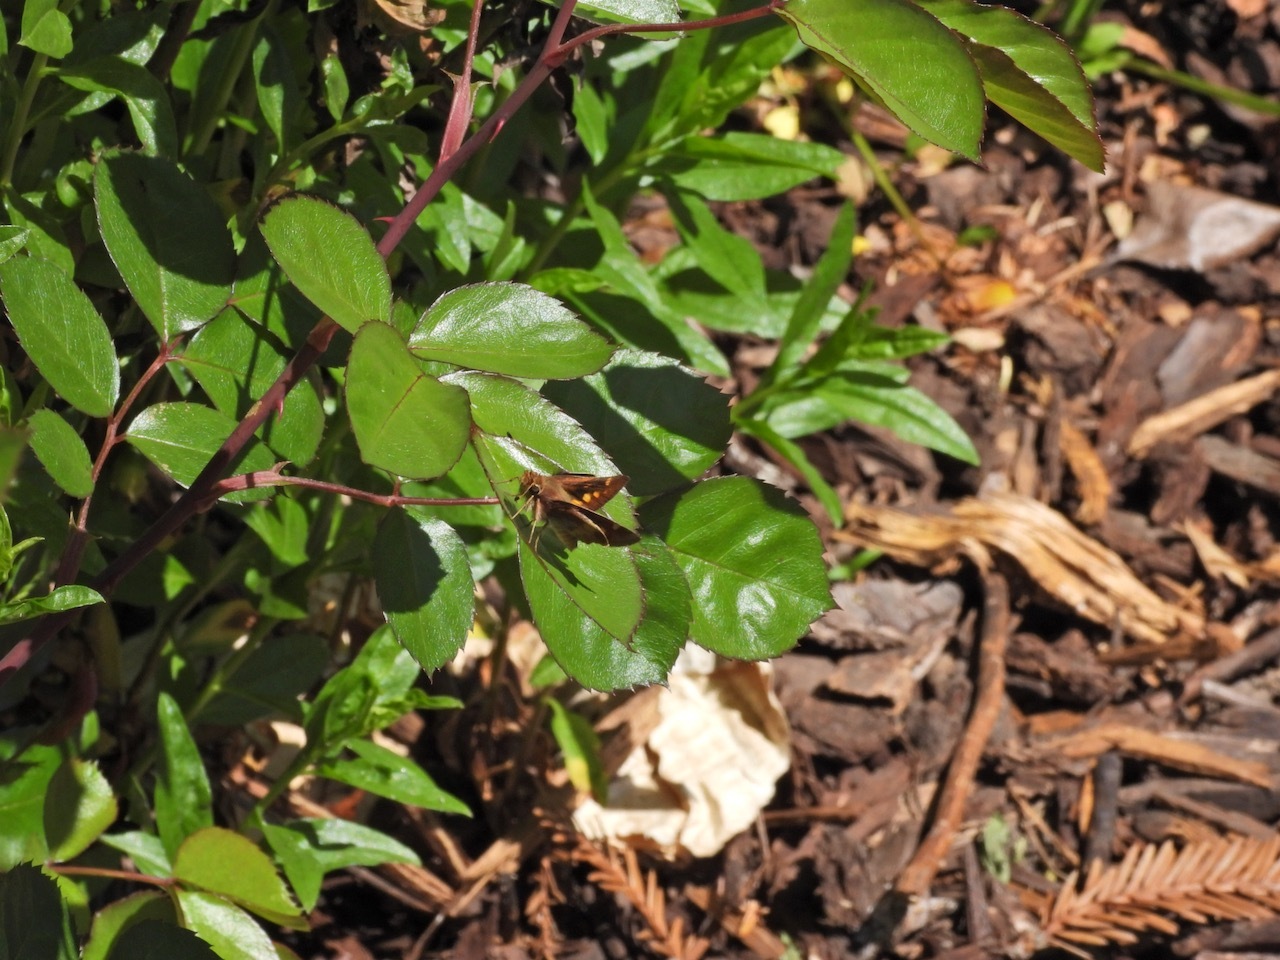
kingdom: Animalia
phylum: Arthropoda
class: Insecta
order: Lepidoptera
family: Hesperiidae
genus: Lon
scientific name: Lon melane
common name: Umber skipper
